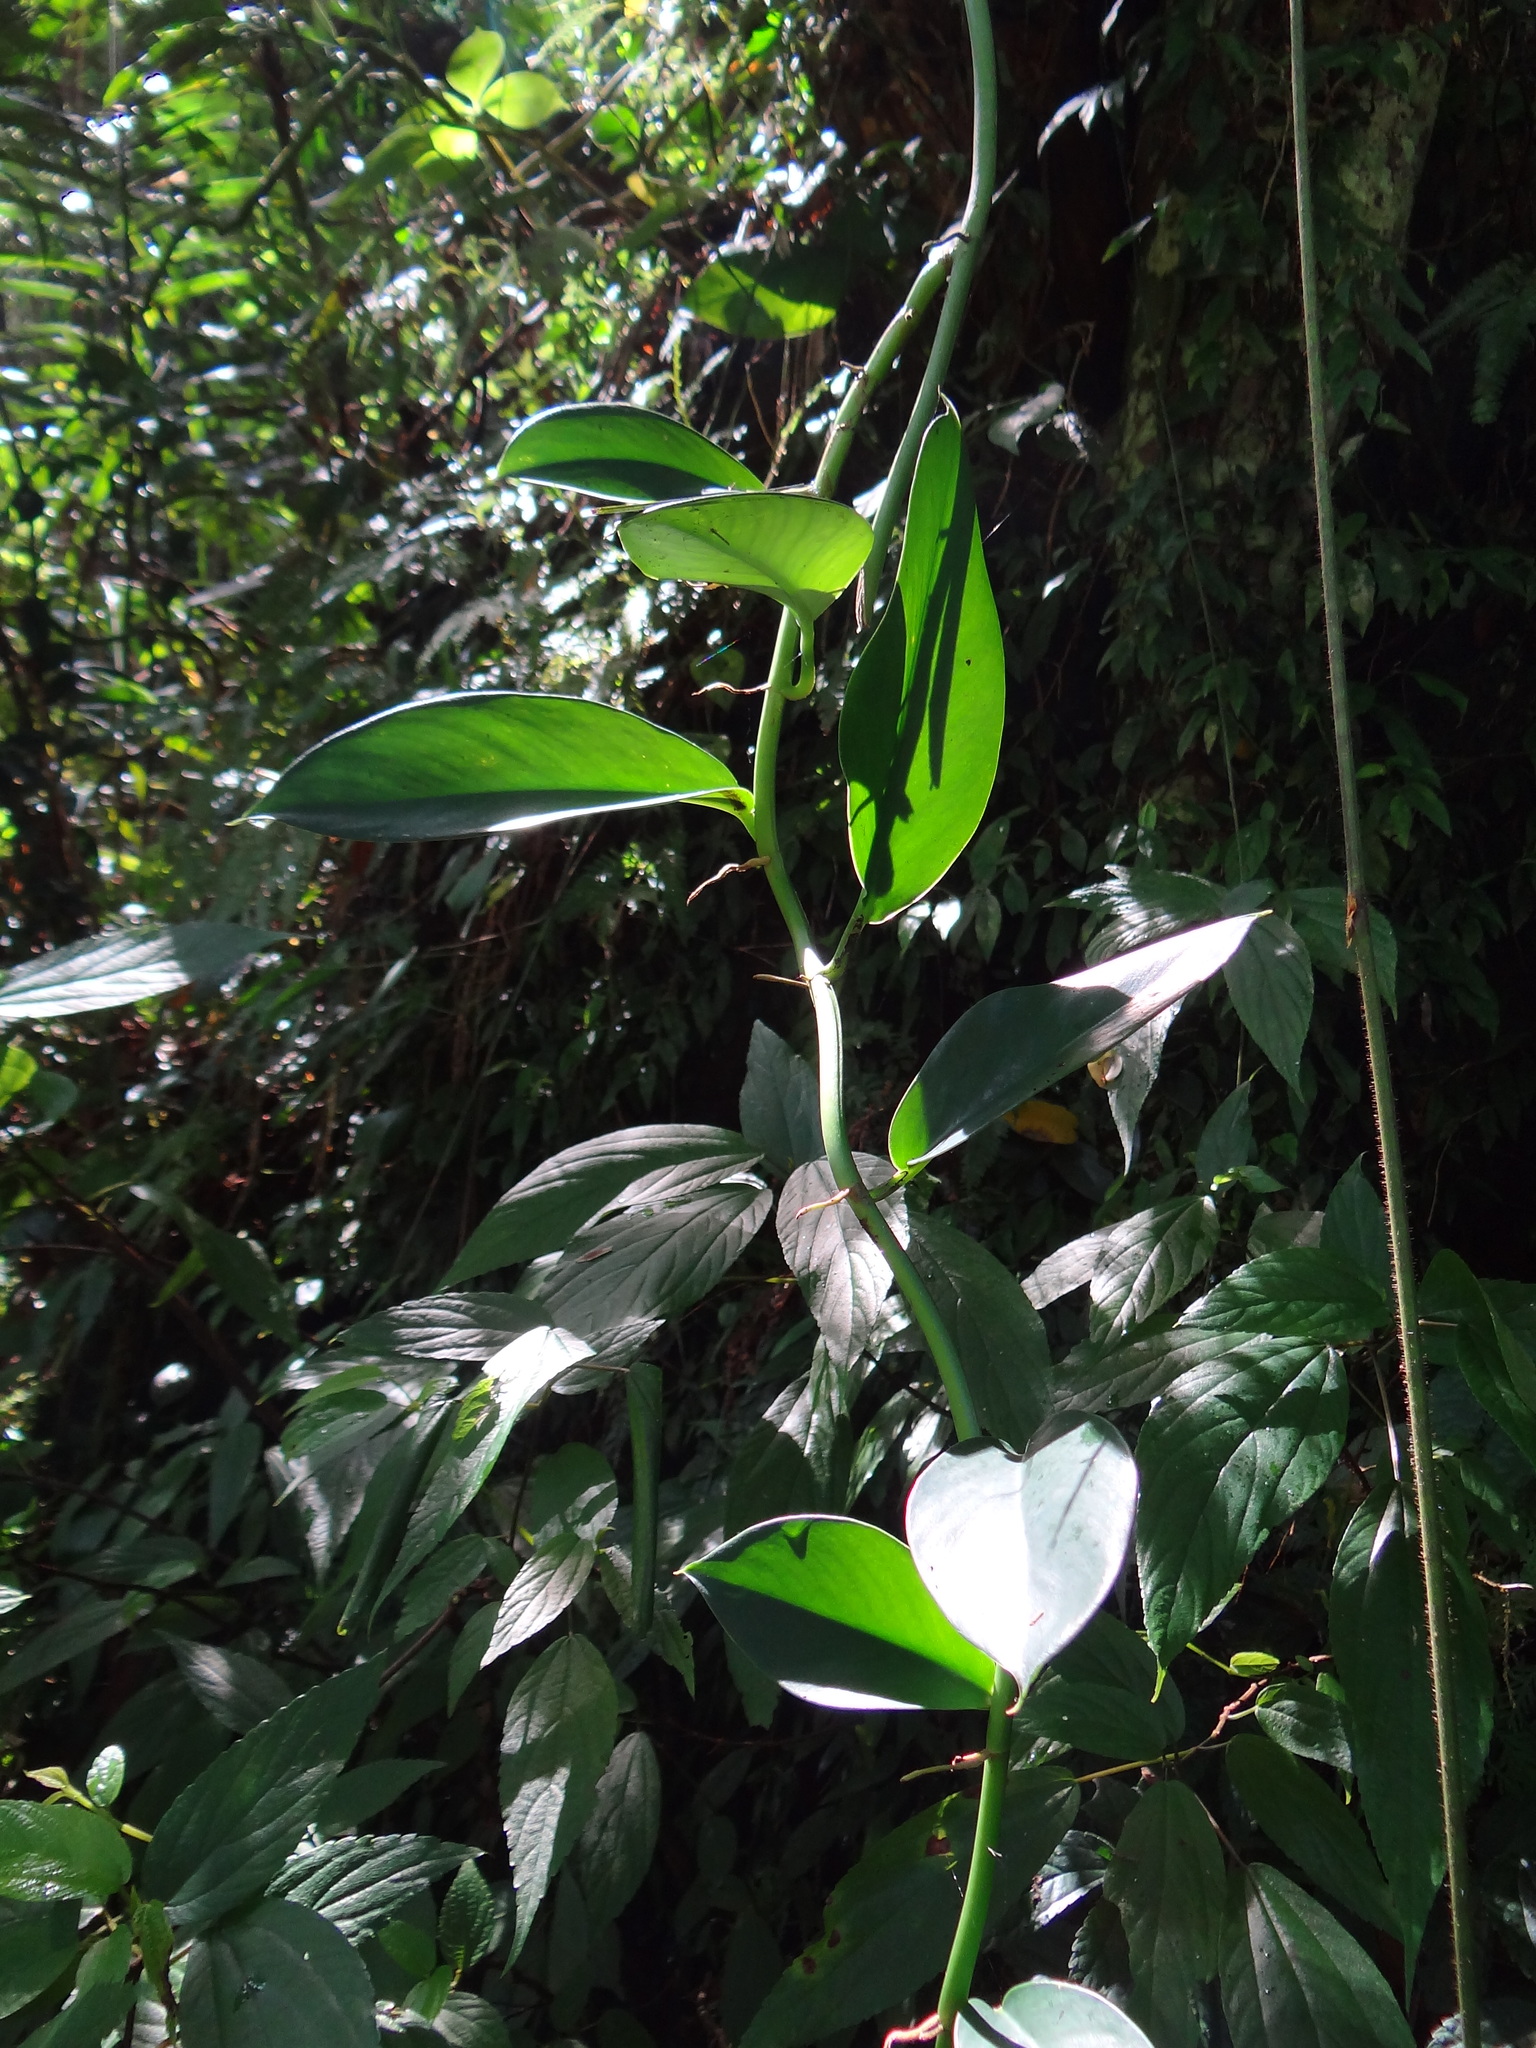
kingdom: Plantae
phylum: Tracheophyta
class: Liliopsida
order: Alismatales
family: Araceae
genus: Rhaphidophora
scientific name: Rhaphidophora hongkongensis
